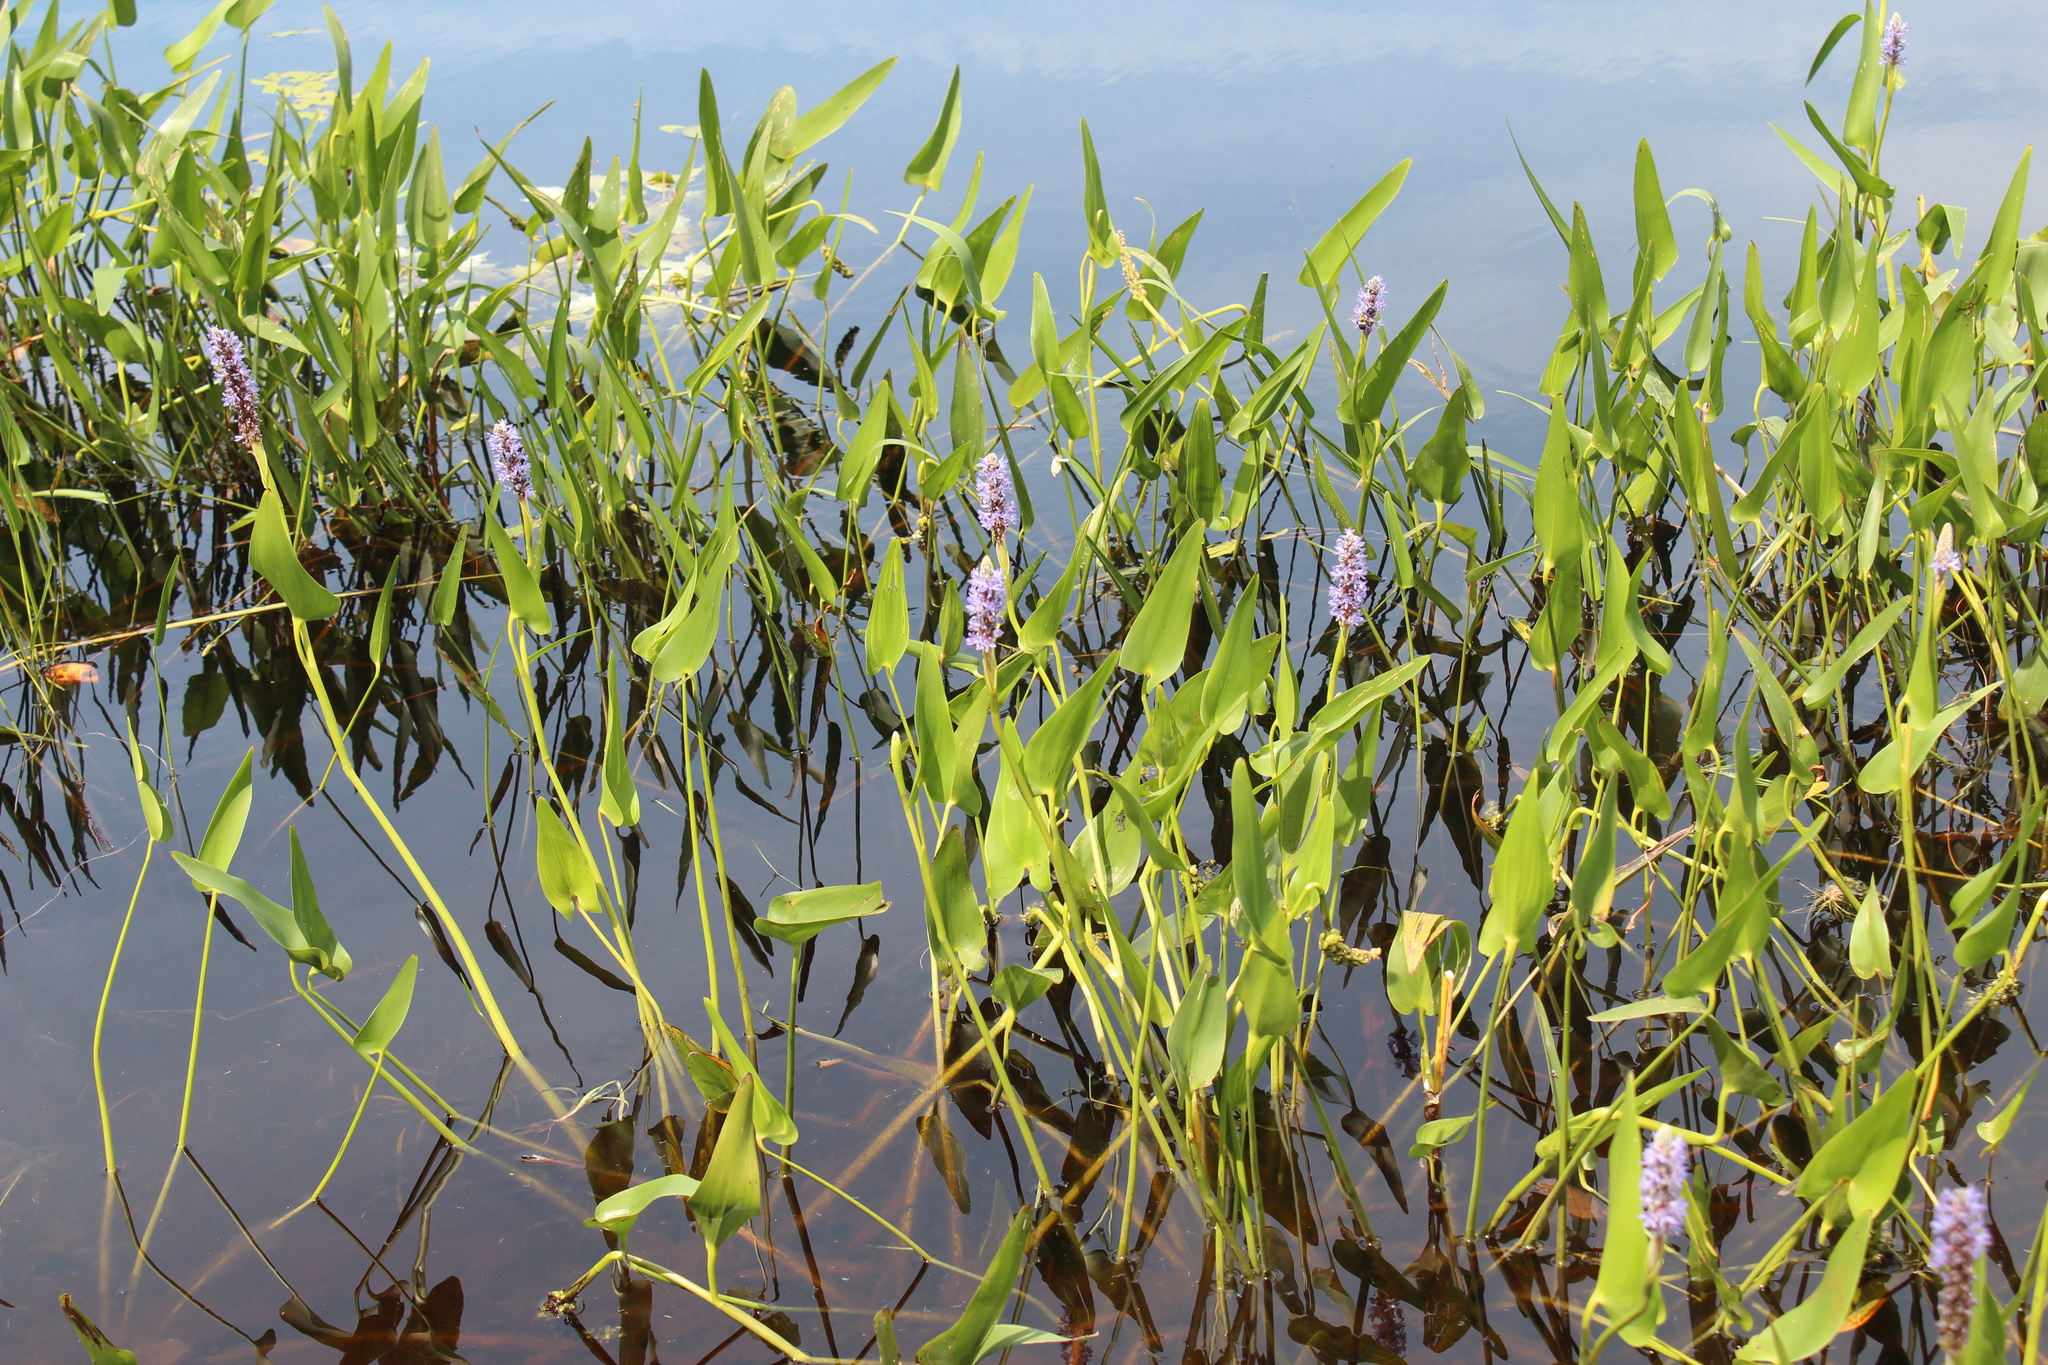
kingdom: Plantae
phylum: Tracheophyta
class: Liliopsida
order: Commelinales
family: Pontederiaceae
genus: Pontederia
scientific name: Pontederia cordata
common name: Pickerelweed
